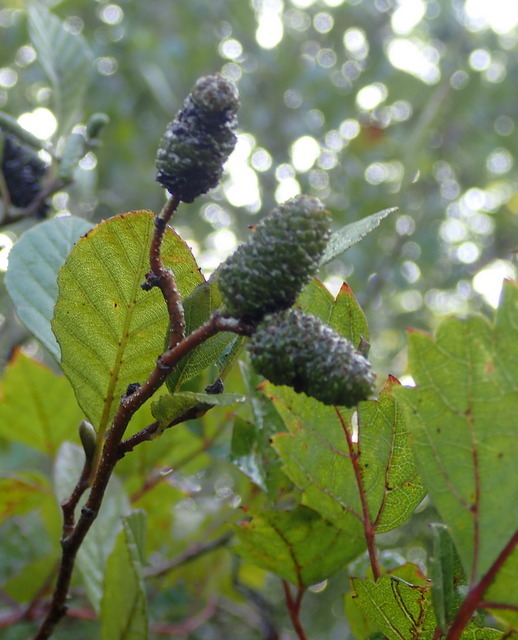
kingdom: Plantae
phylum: Tracheophyta
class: Magnoliopsida
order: Fagales
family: Betulaceae
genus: Alnus
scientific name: Alnus serrulata
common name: Hazel alder
